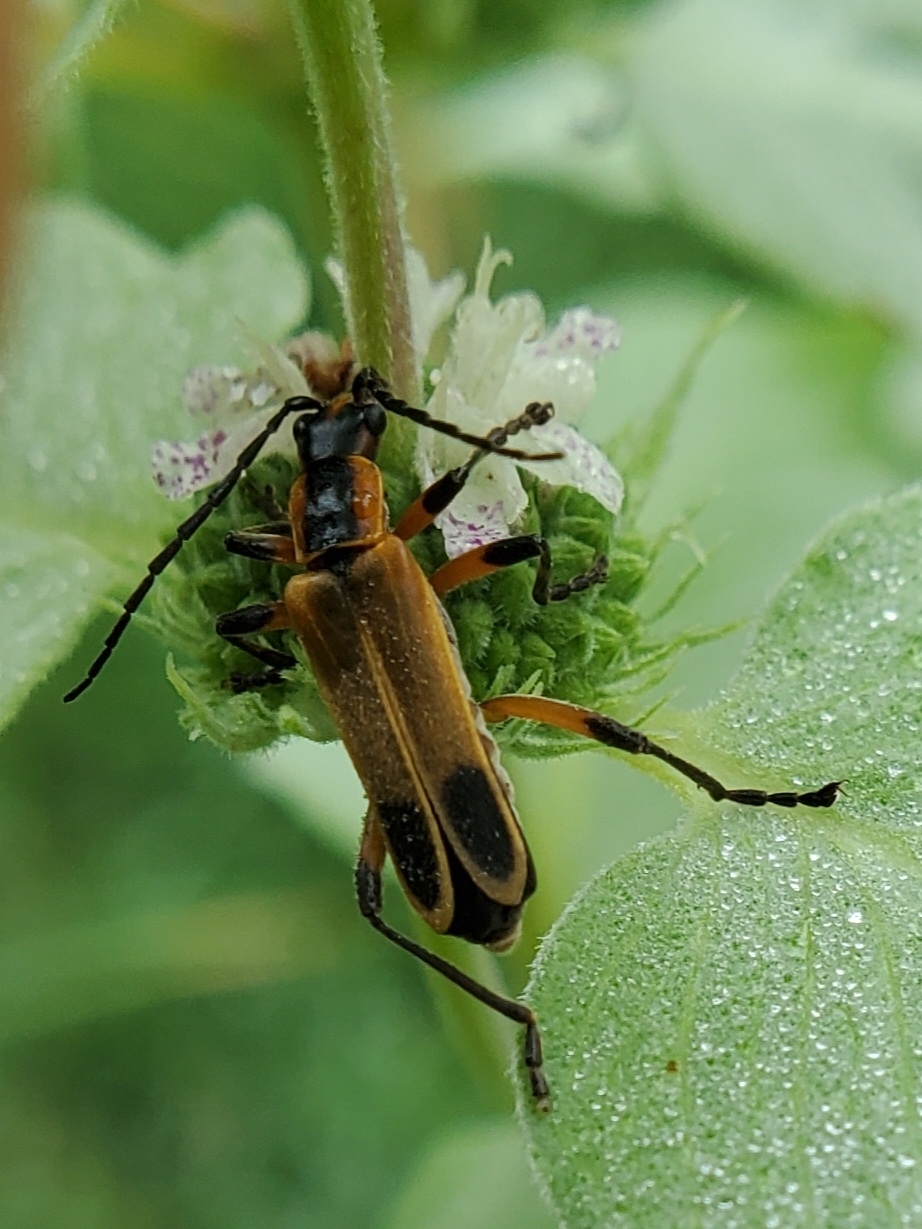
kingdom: Animalia
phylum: Arthropoda
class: Insecta
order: Coleoptera
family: Cantharidae
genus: Chauliognathus
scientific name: Chauliognathus marginatus
